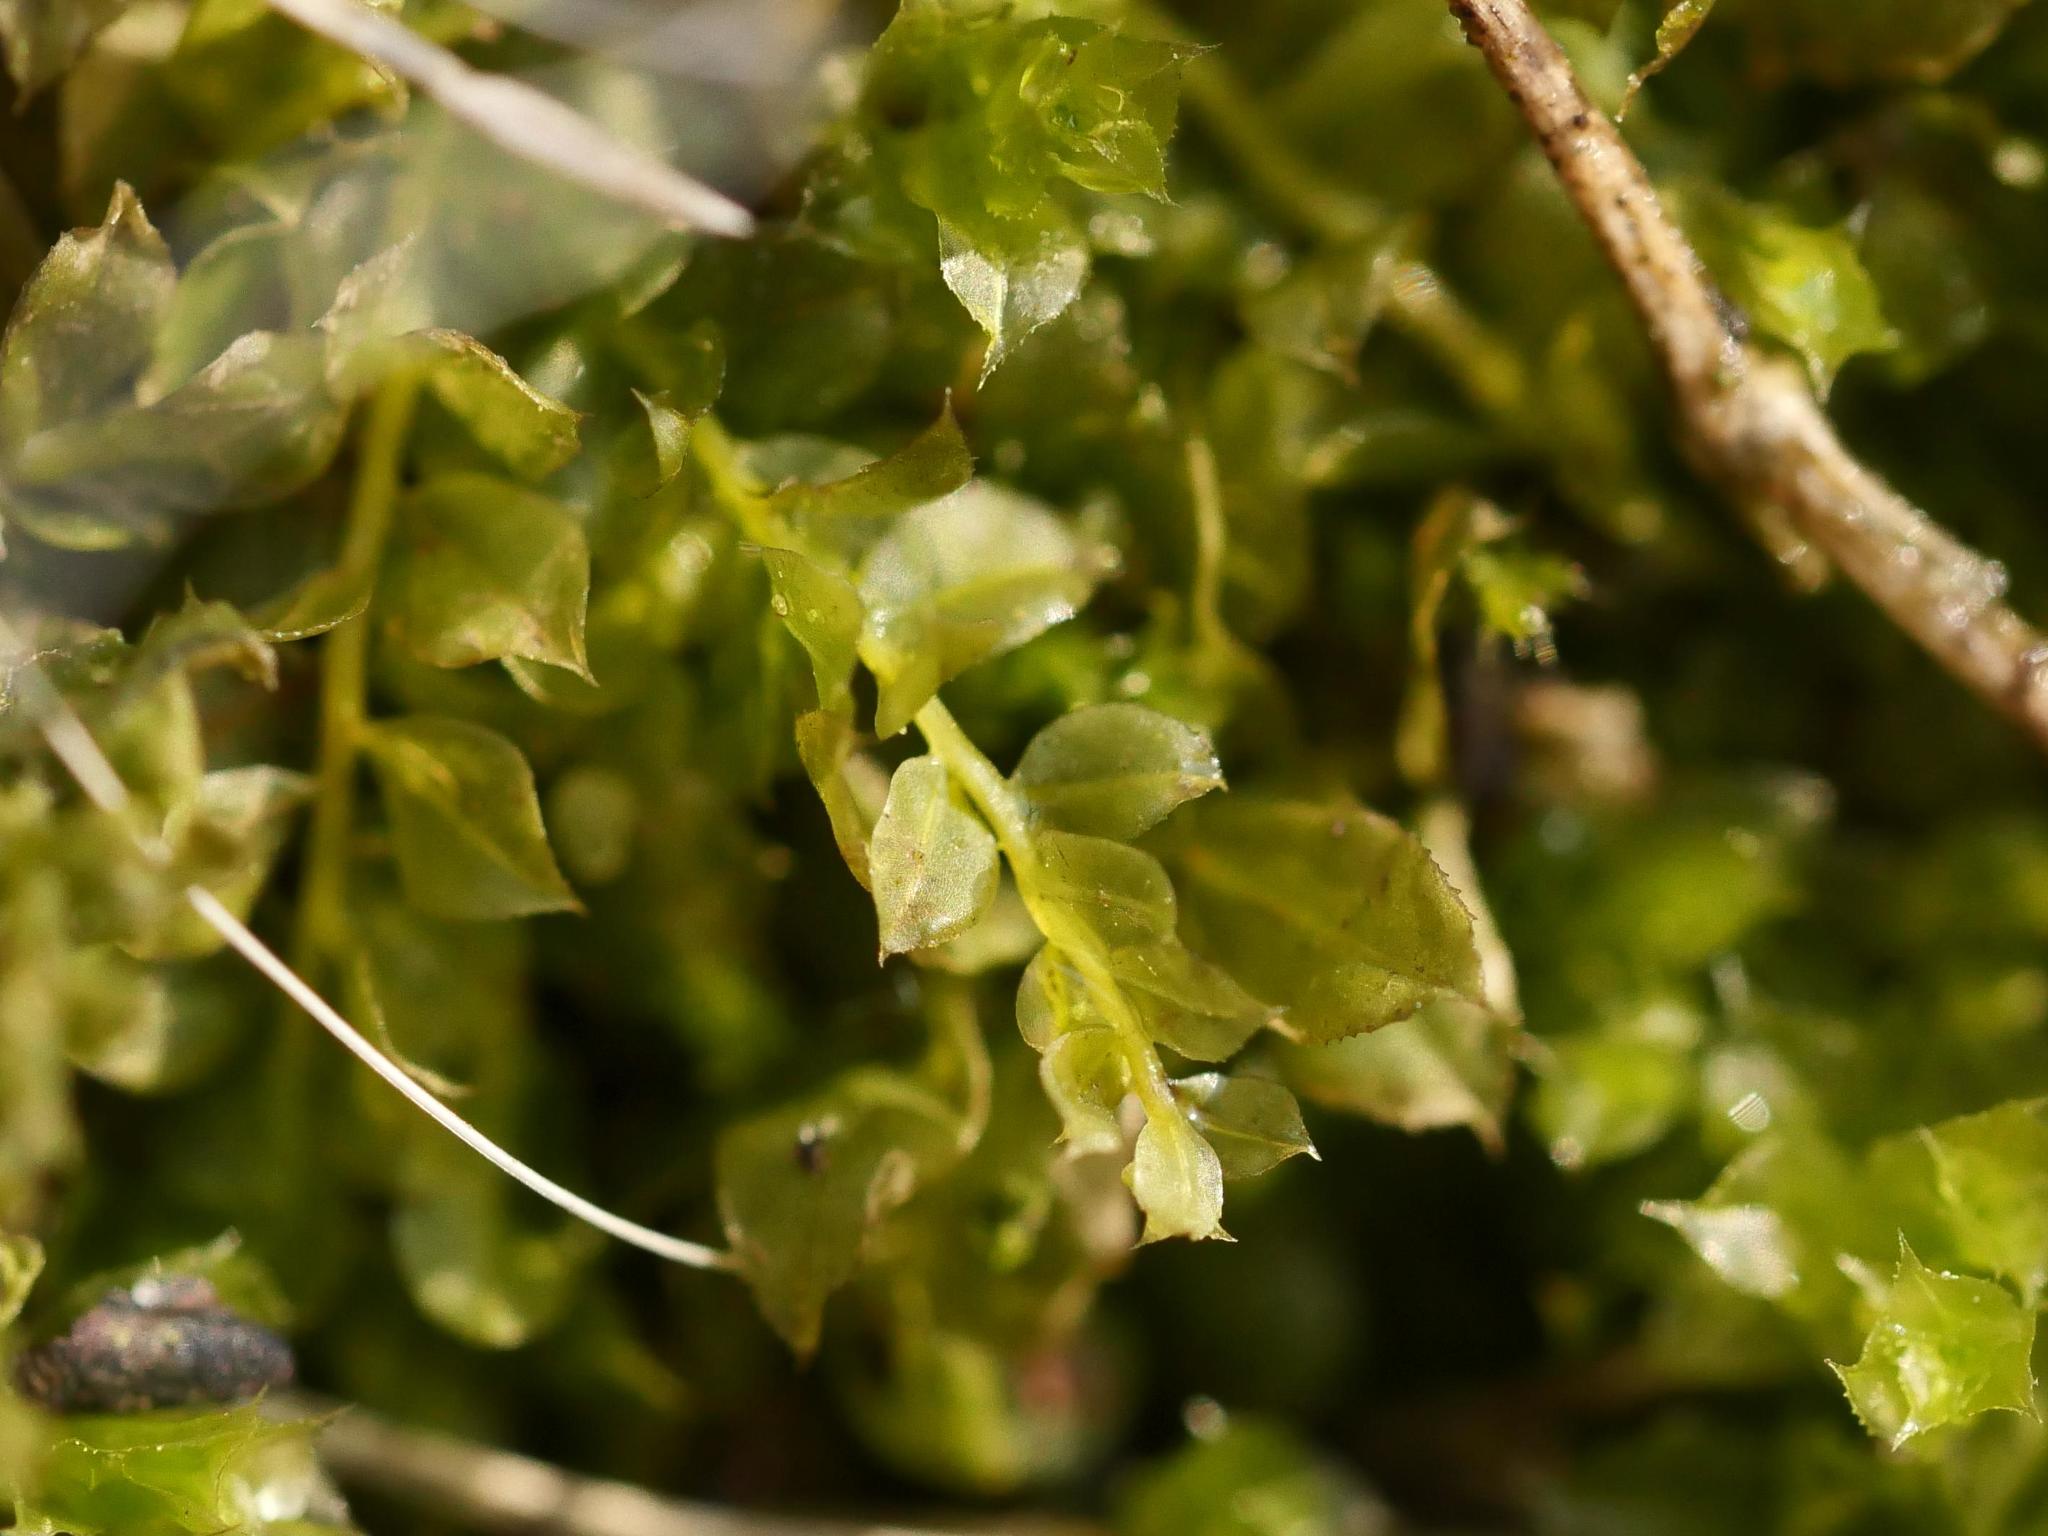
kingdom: Plantae
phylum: Bryophyta
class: Bryopsida
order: Bryales
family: Mniaceae
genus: Plagiomnium
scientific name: Plagiomnium cuspidatum
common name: Woodsy leafy moss
